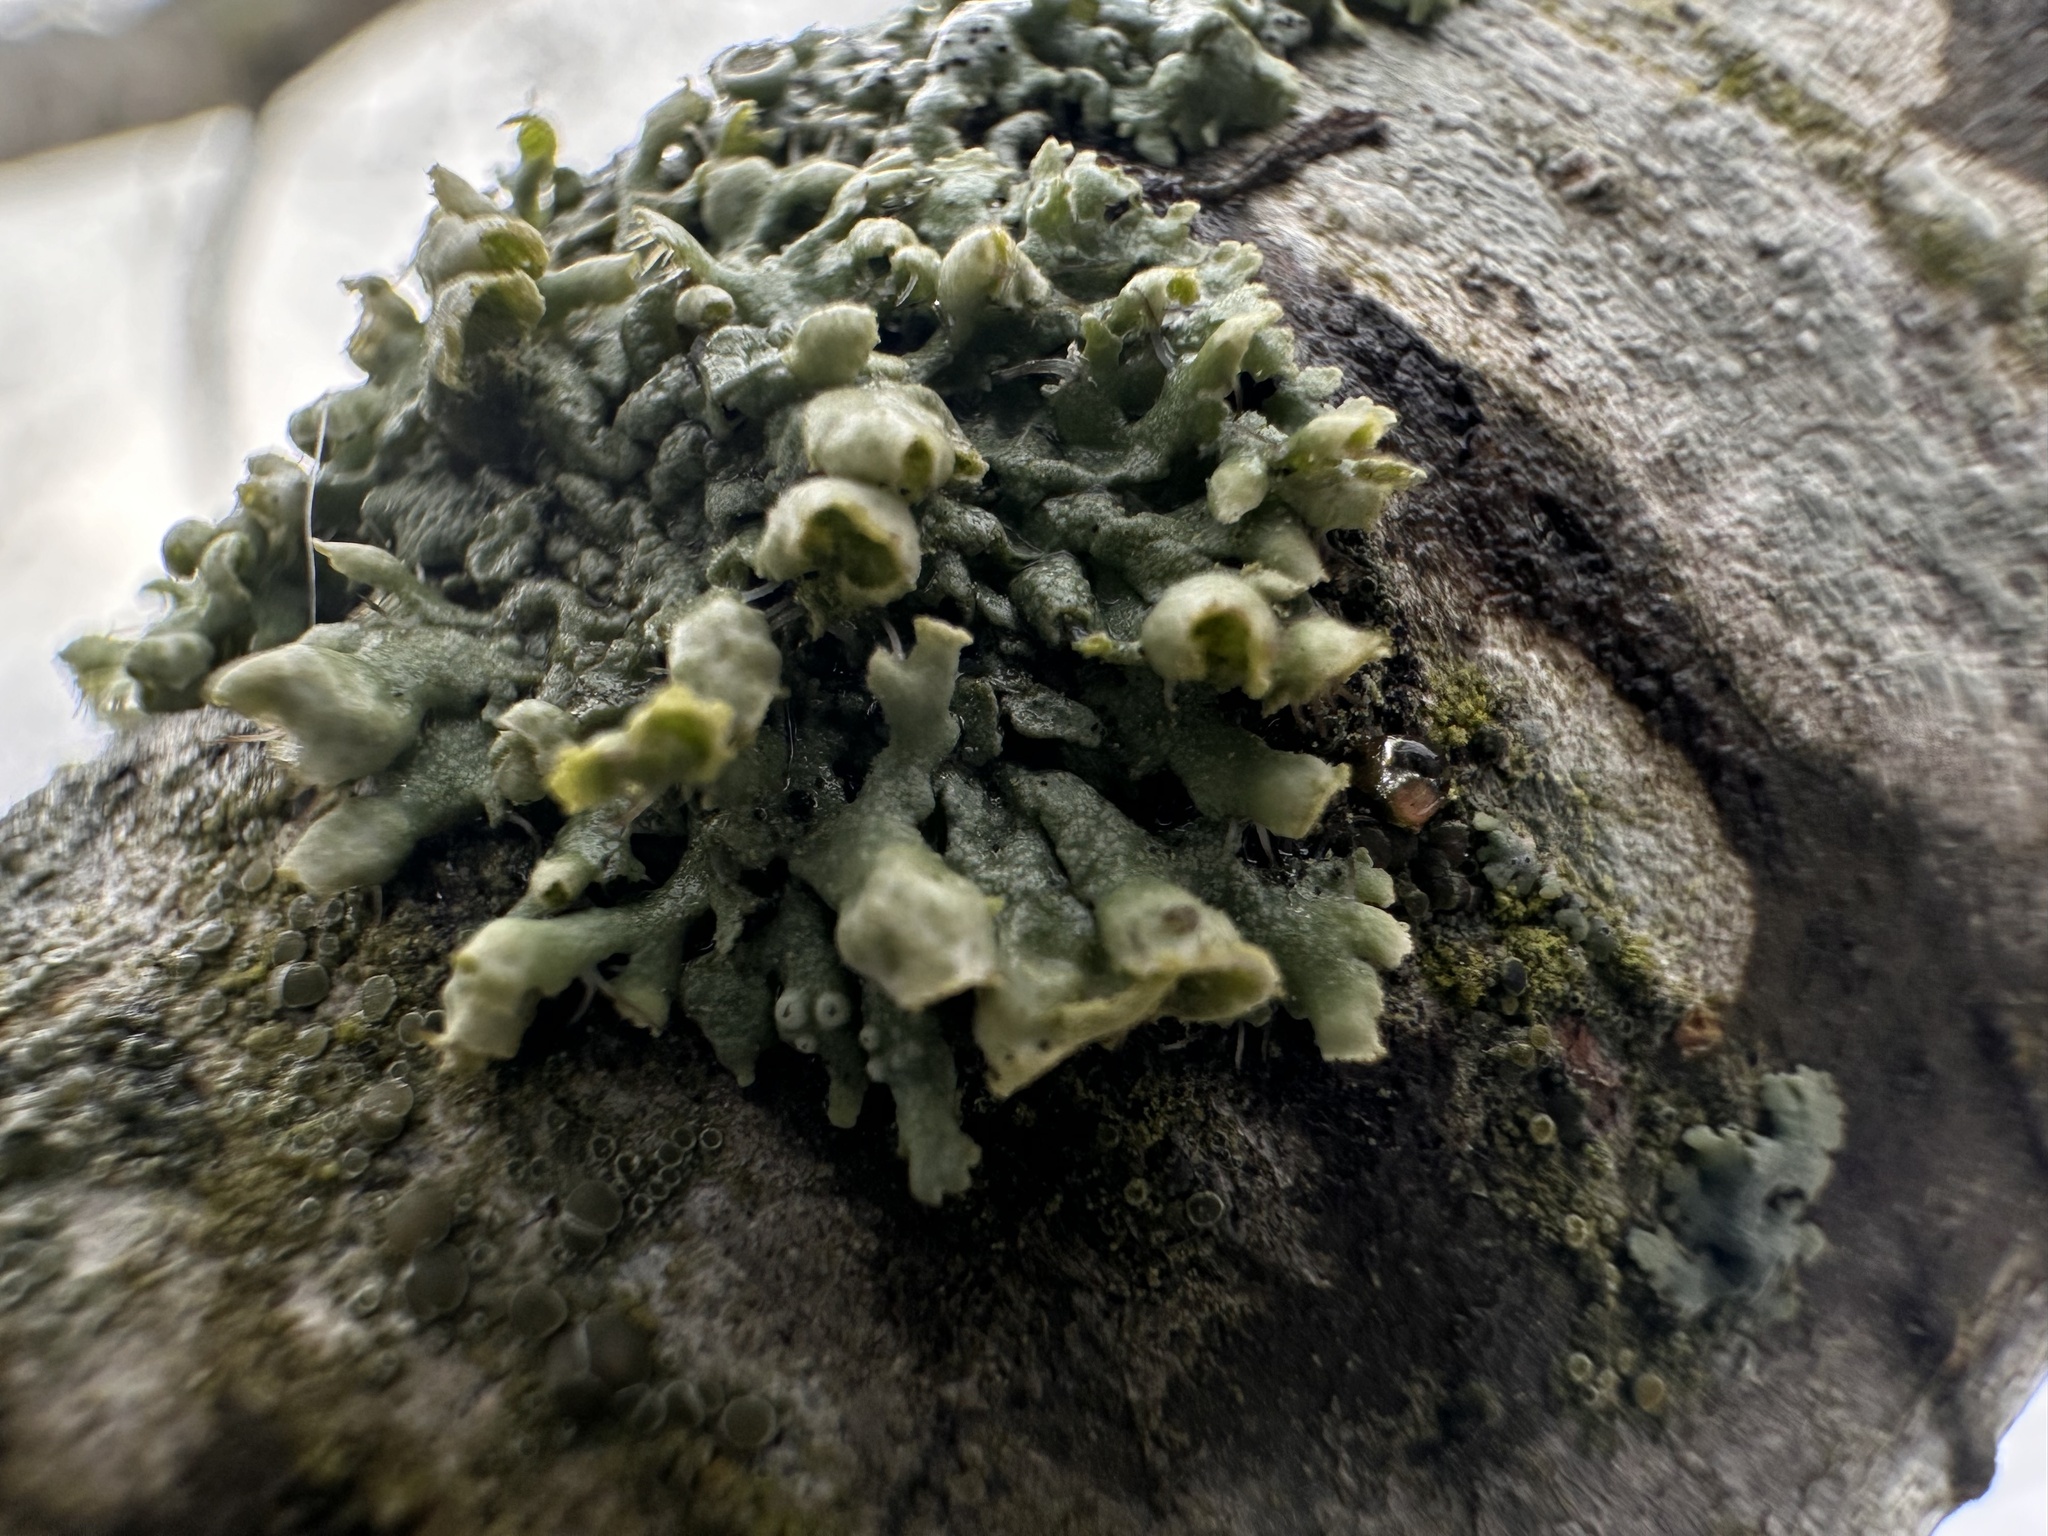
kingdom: Fungi
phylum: Ascomycota
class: Lecanoromycetes
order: Caliciales
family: Physciaceae
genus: Physcia
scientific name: Physcia adscendens
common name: Hooded rosette lichen
